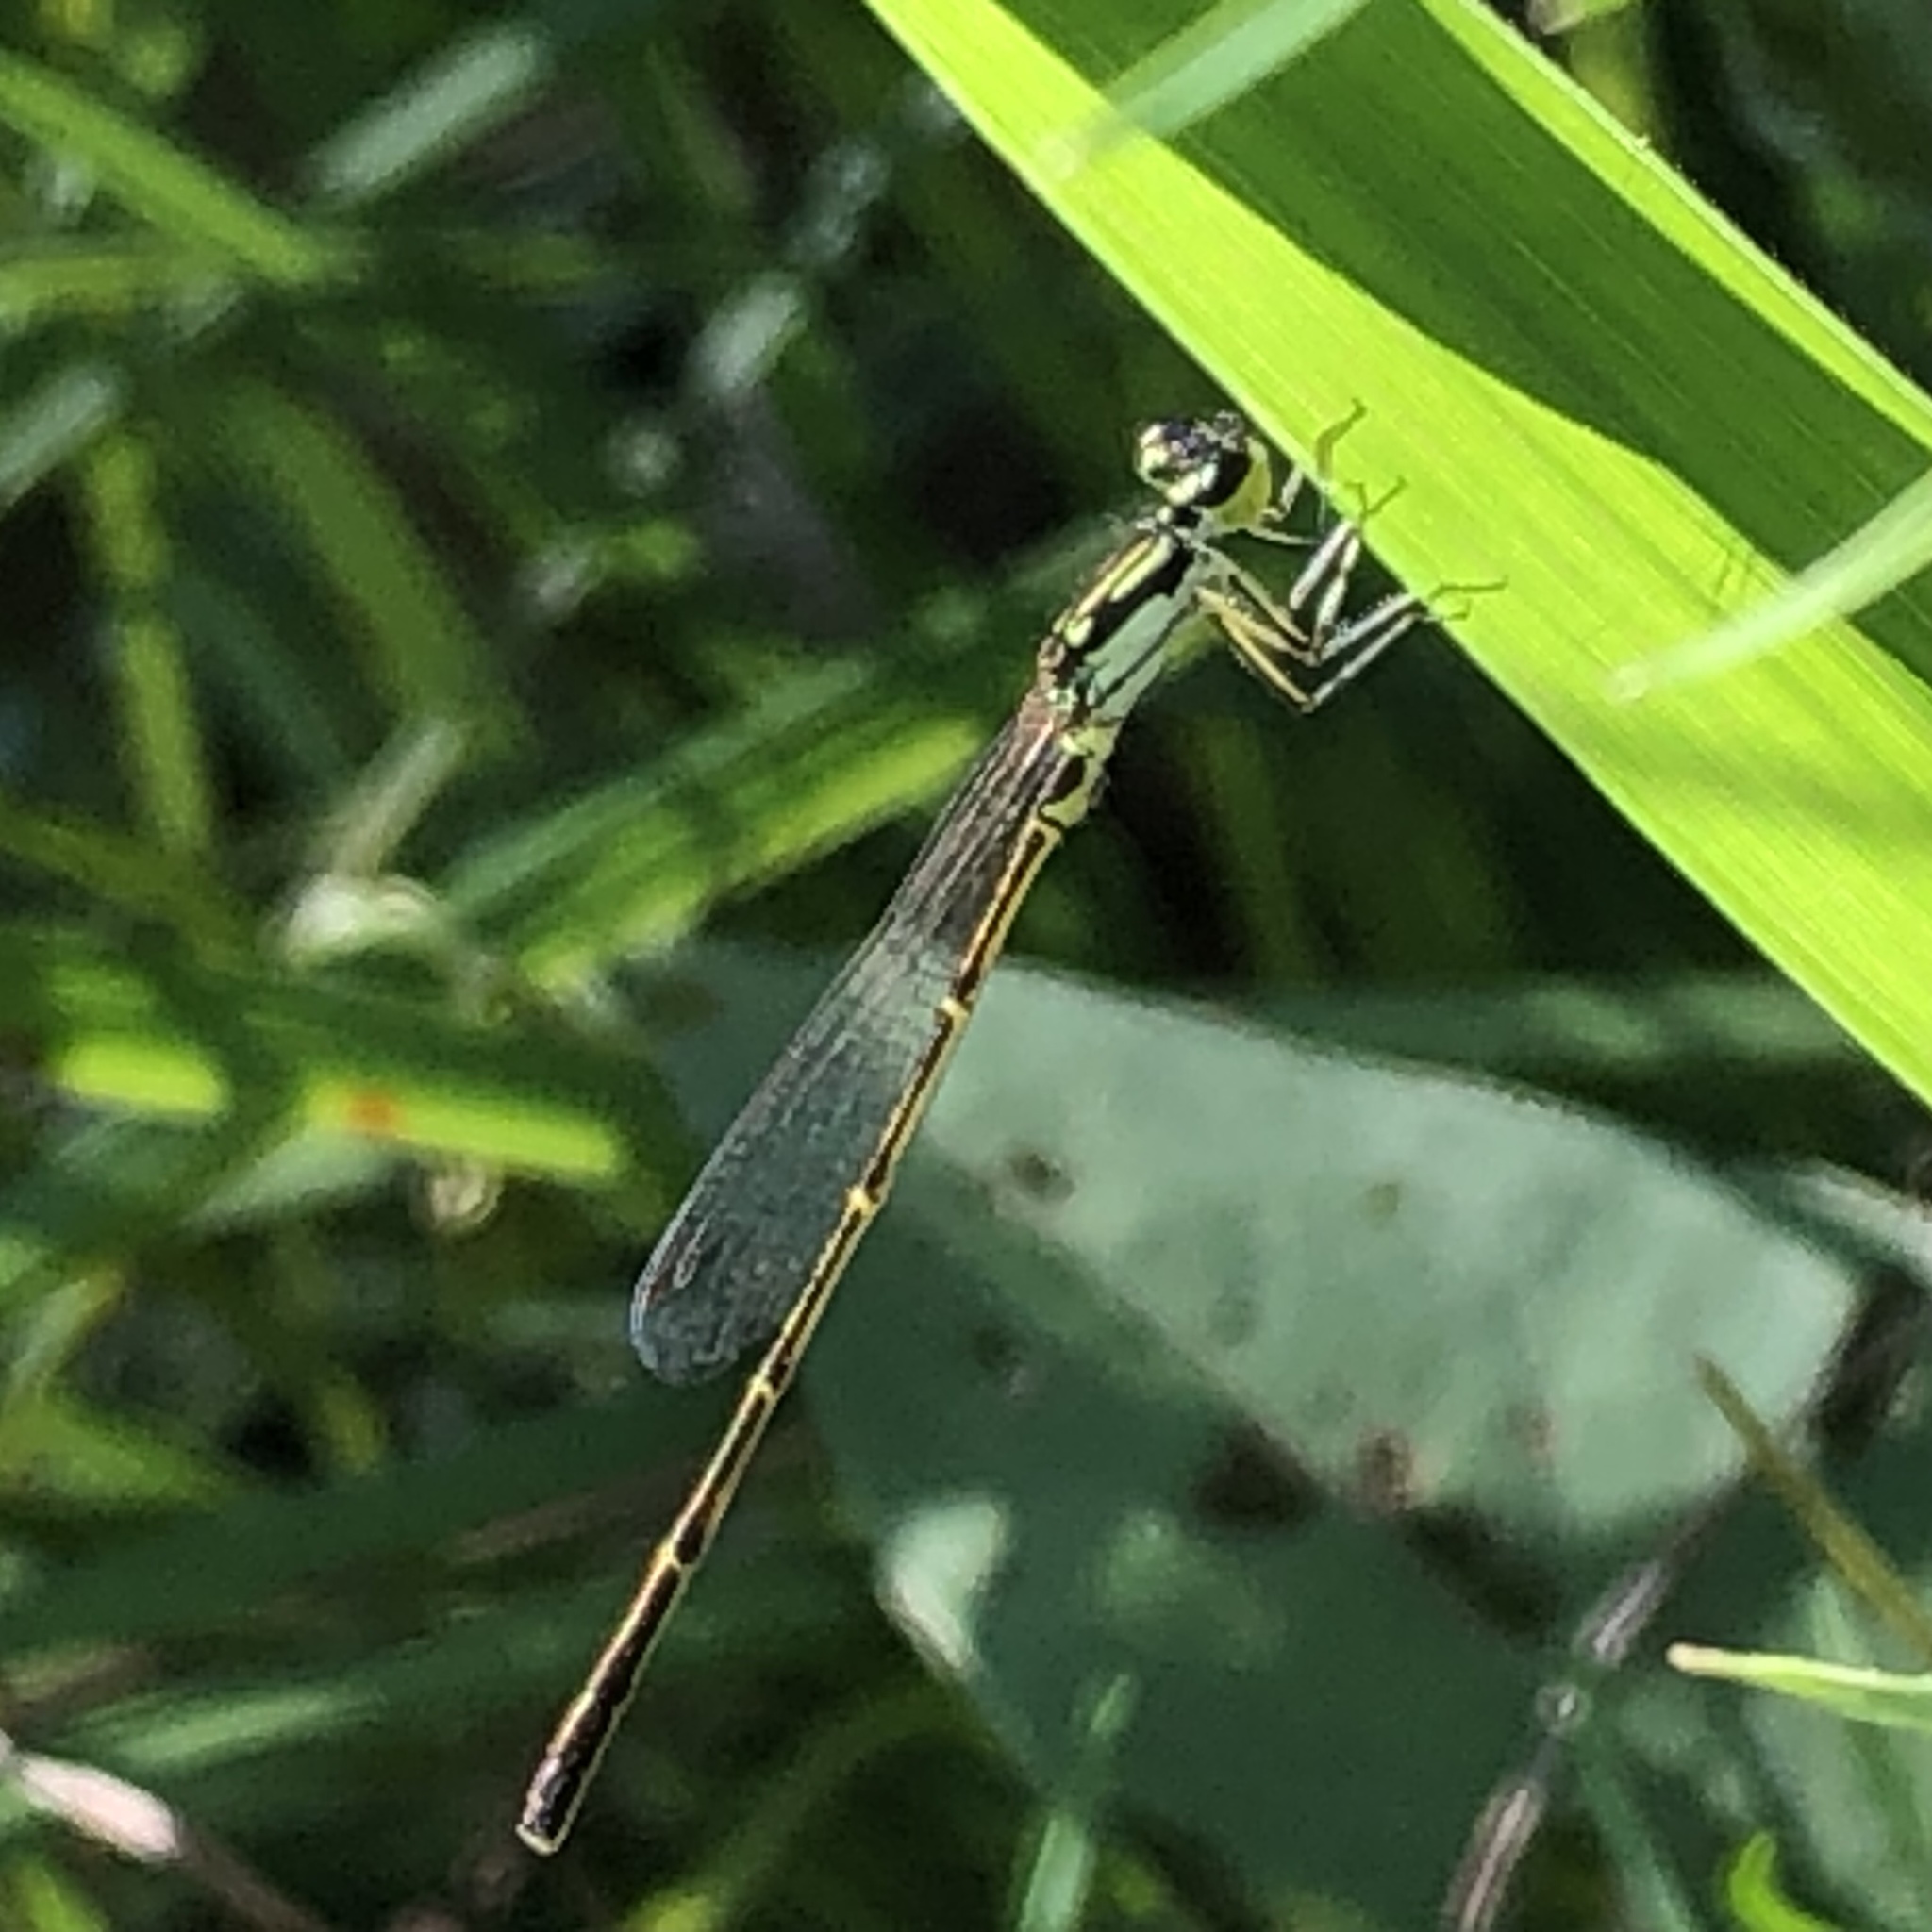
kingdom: Animalia
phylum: Arthropoda
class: Insecta
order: Odonata
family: Coenagrionidae
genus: Ischnura
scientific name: Ischnura posita
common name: Fragile forktail
